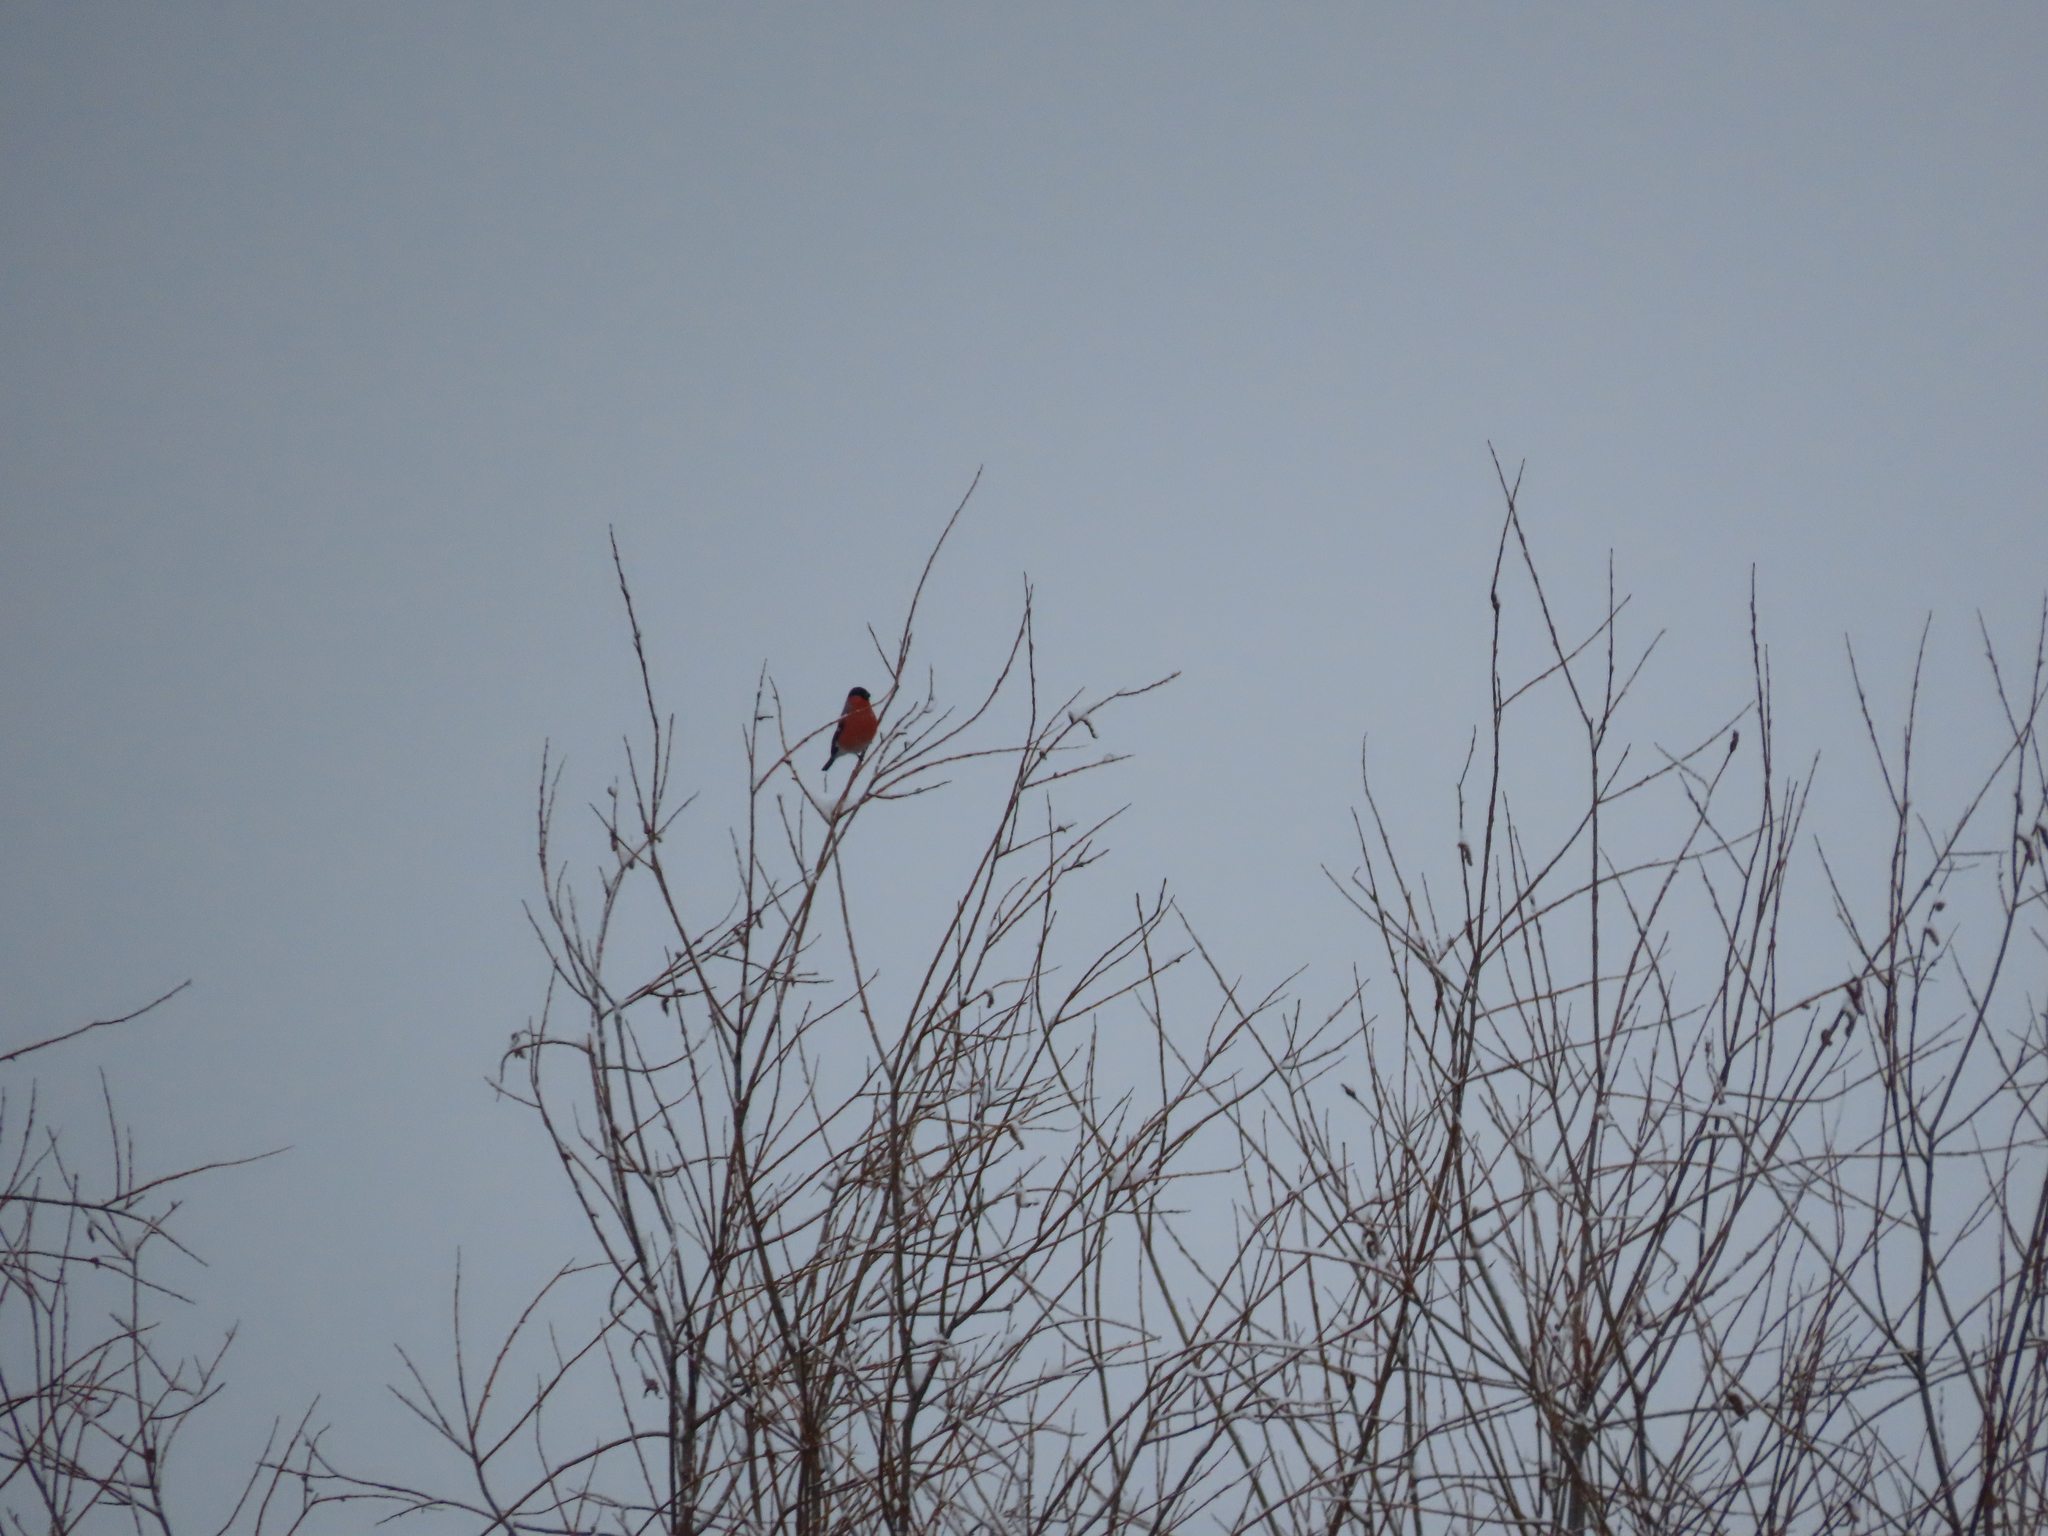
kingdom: Animalia
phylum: Chordata
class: Aves
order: Passeriformes
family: Fringillidae
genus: Pyrrhula
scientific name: Pyrrhula pyrrhula
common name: Eurasian bullfinch
